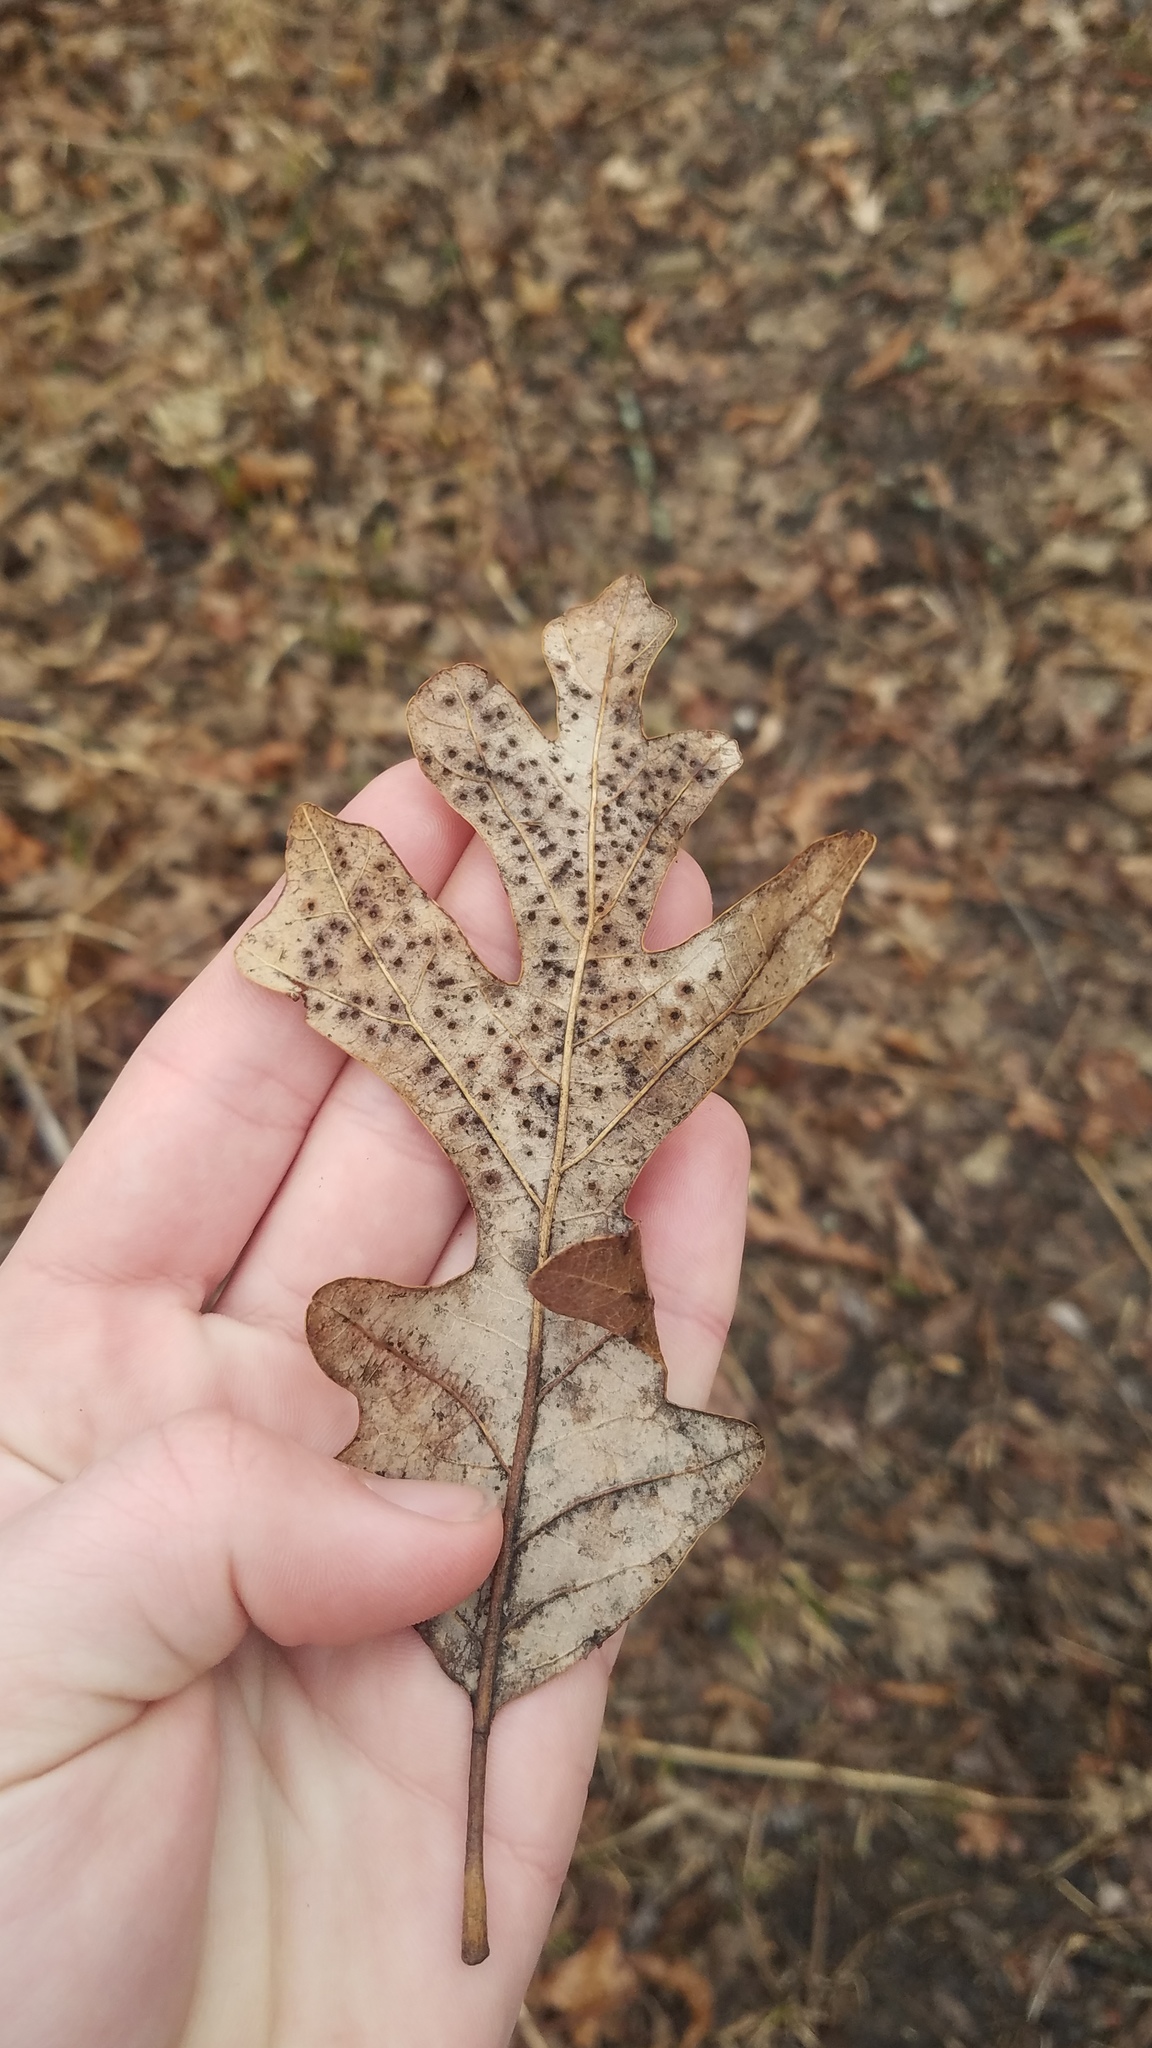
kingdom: Plantae
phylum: Tracheophyta
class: Magnoliopsida
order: Fagales
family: Fagaceae
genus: Quercus
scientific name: Quercus alba
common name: White oak
